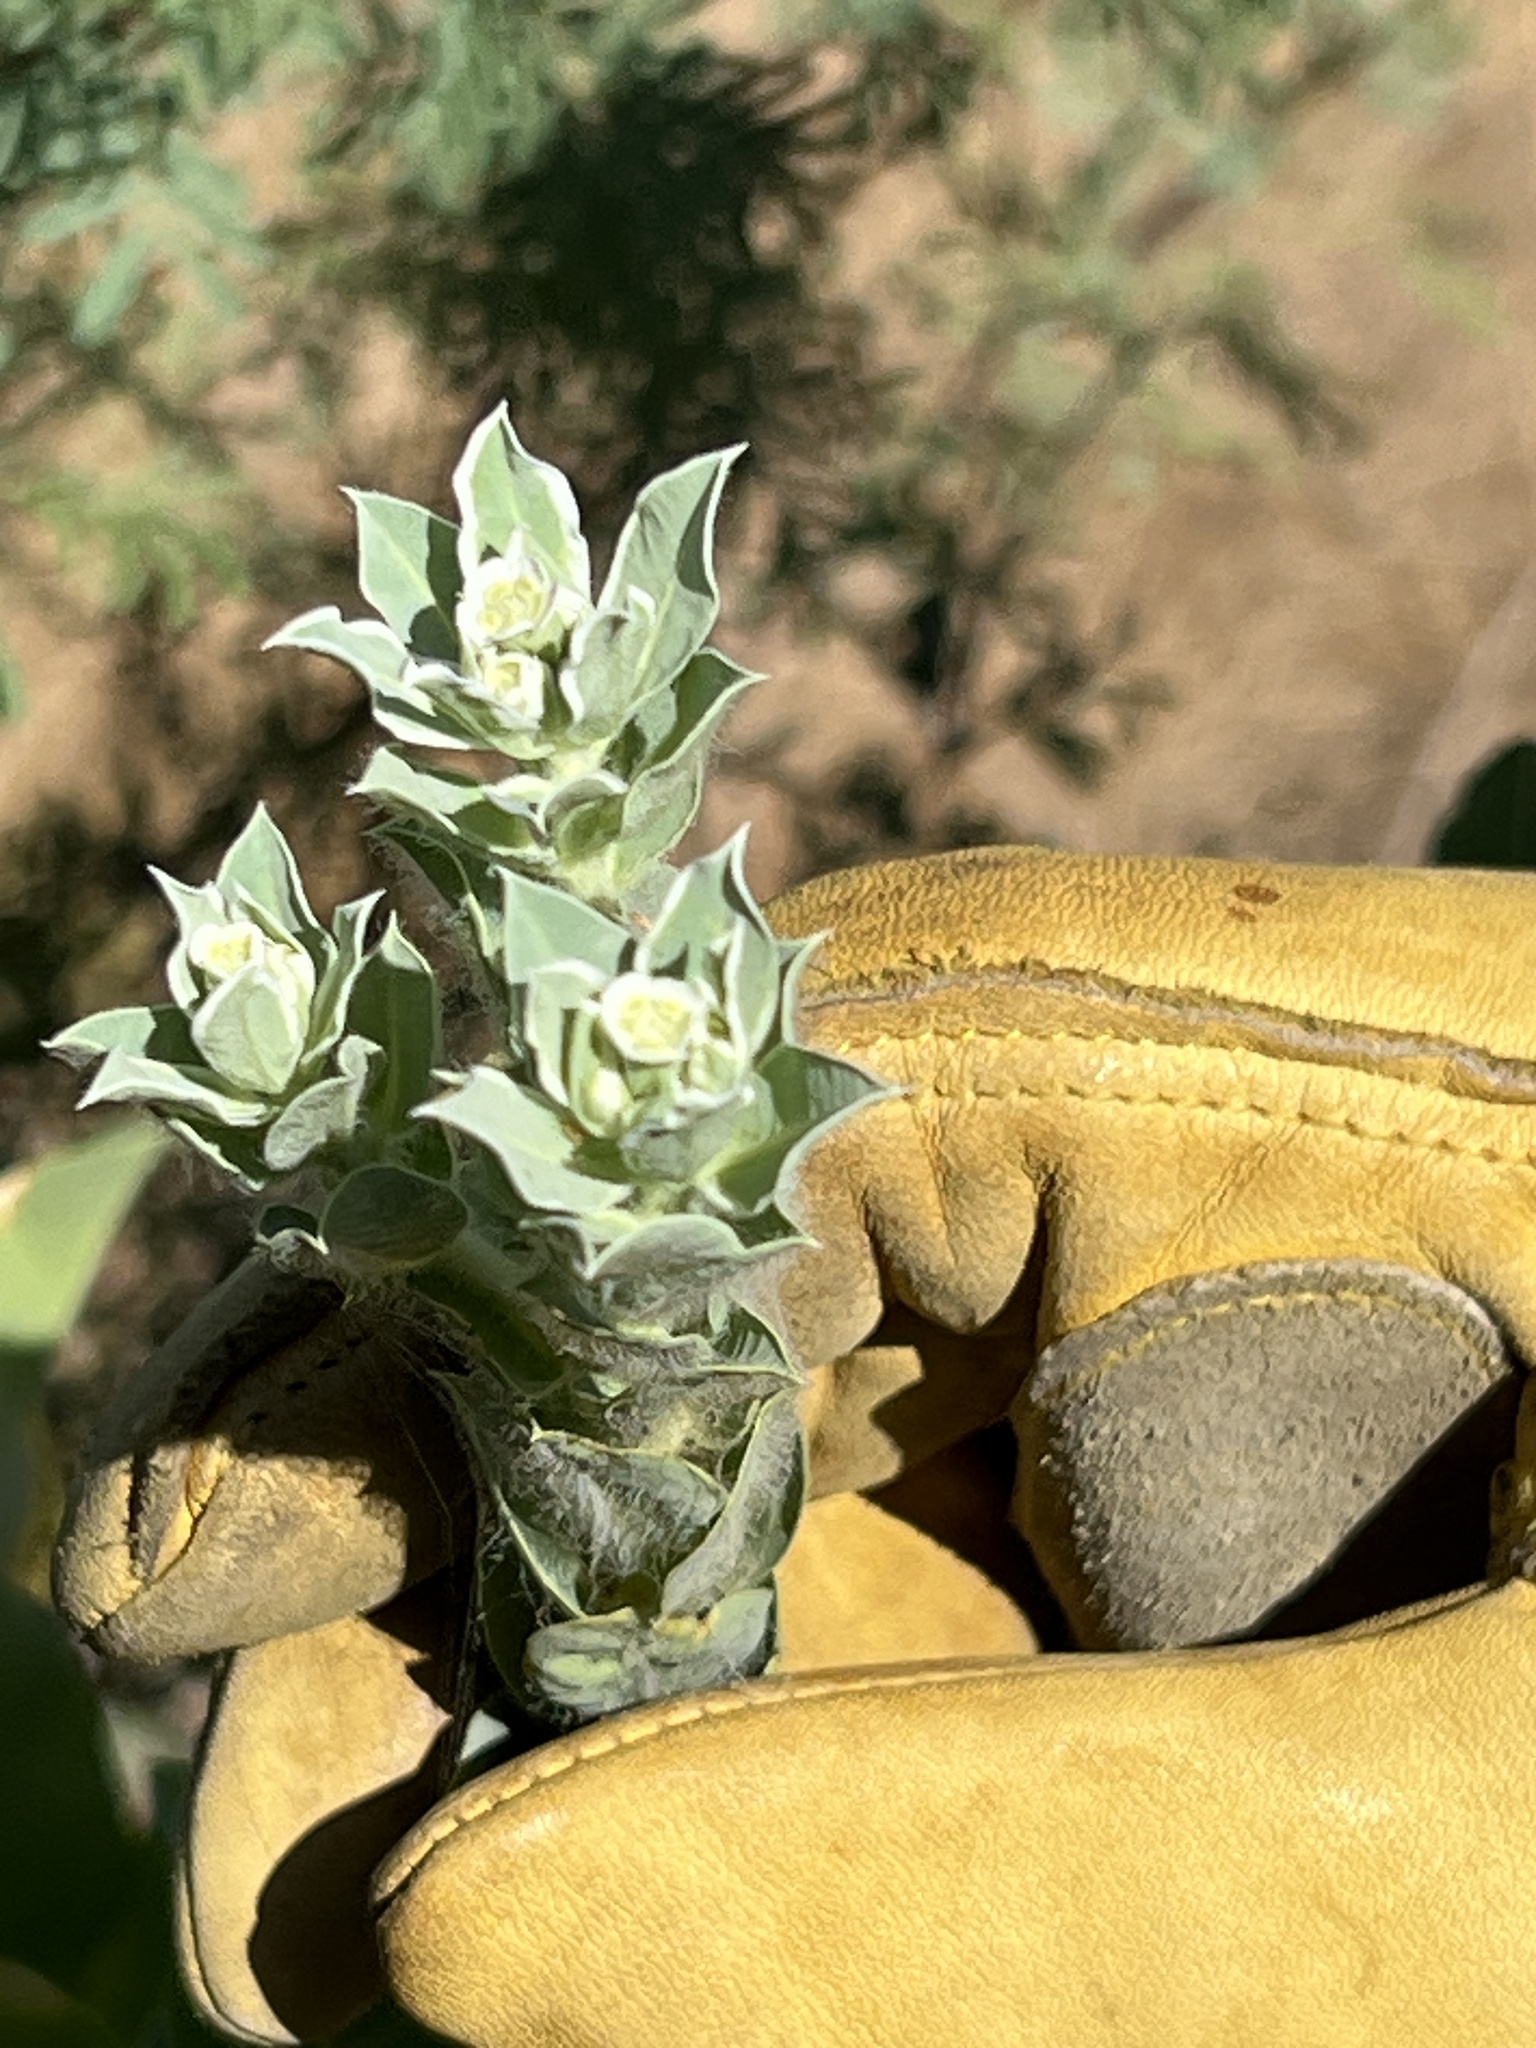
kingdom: Plantae
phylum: Tracheophyta
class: Magnoliopsida
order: Malpighiales
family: Euphorbiaceae
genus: Euphorbia
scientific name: Euphorbia marginata
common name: Ghostweed
